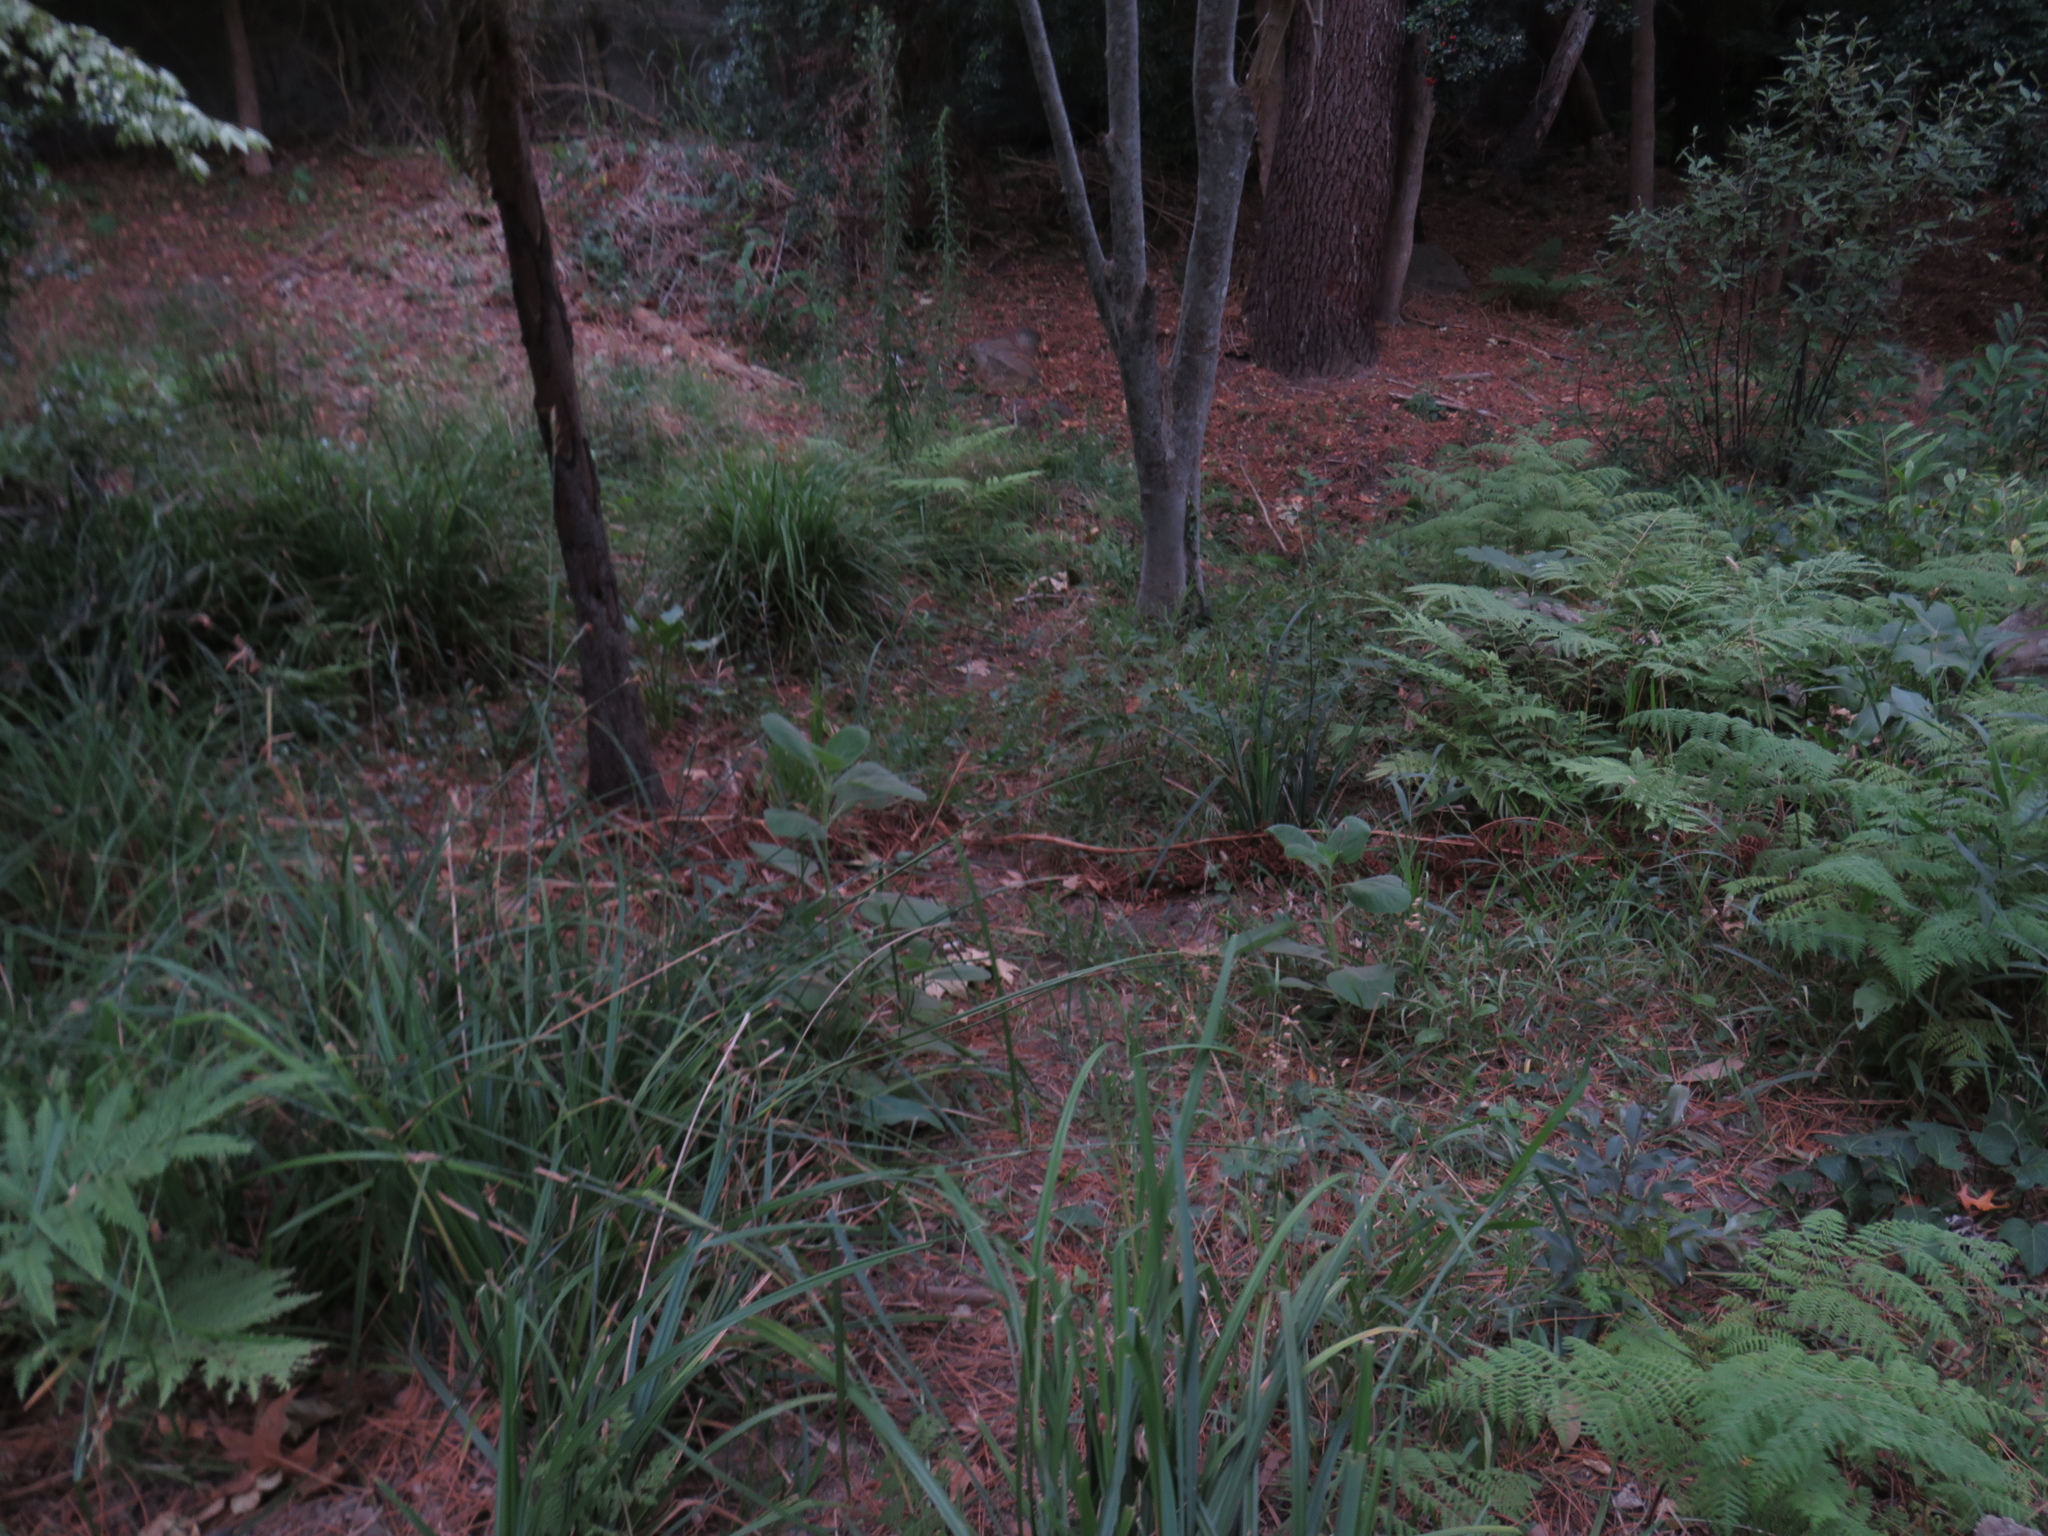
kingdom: Plantae
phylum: Tracheophyta
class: Magnoliopsida
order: Lamiales
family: Lamiaceae
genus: Coleus
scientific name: Coleus barbatus
